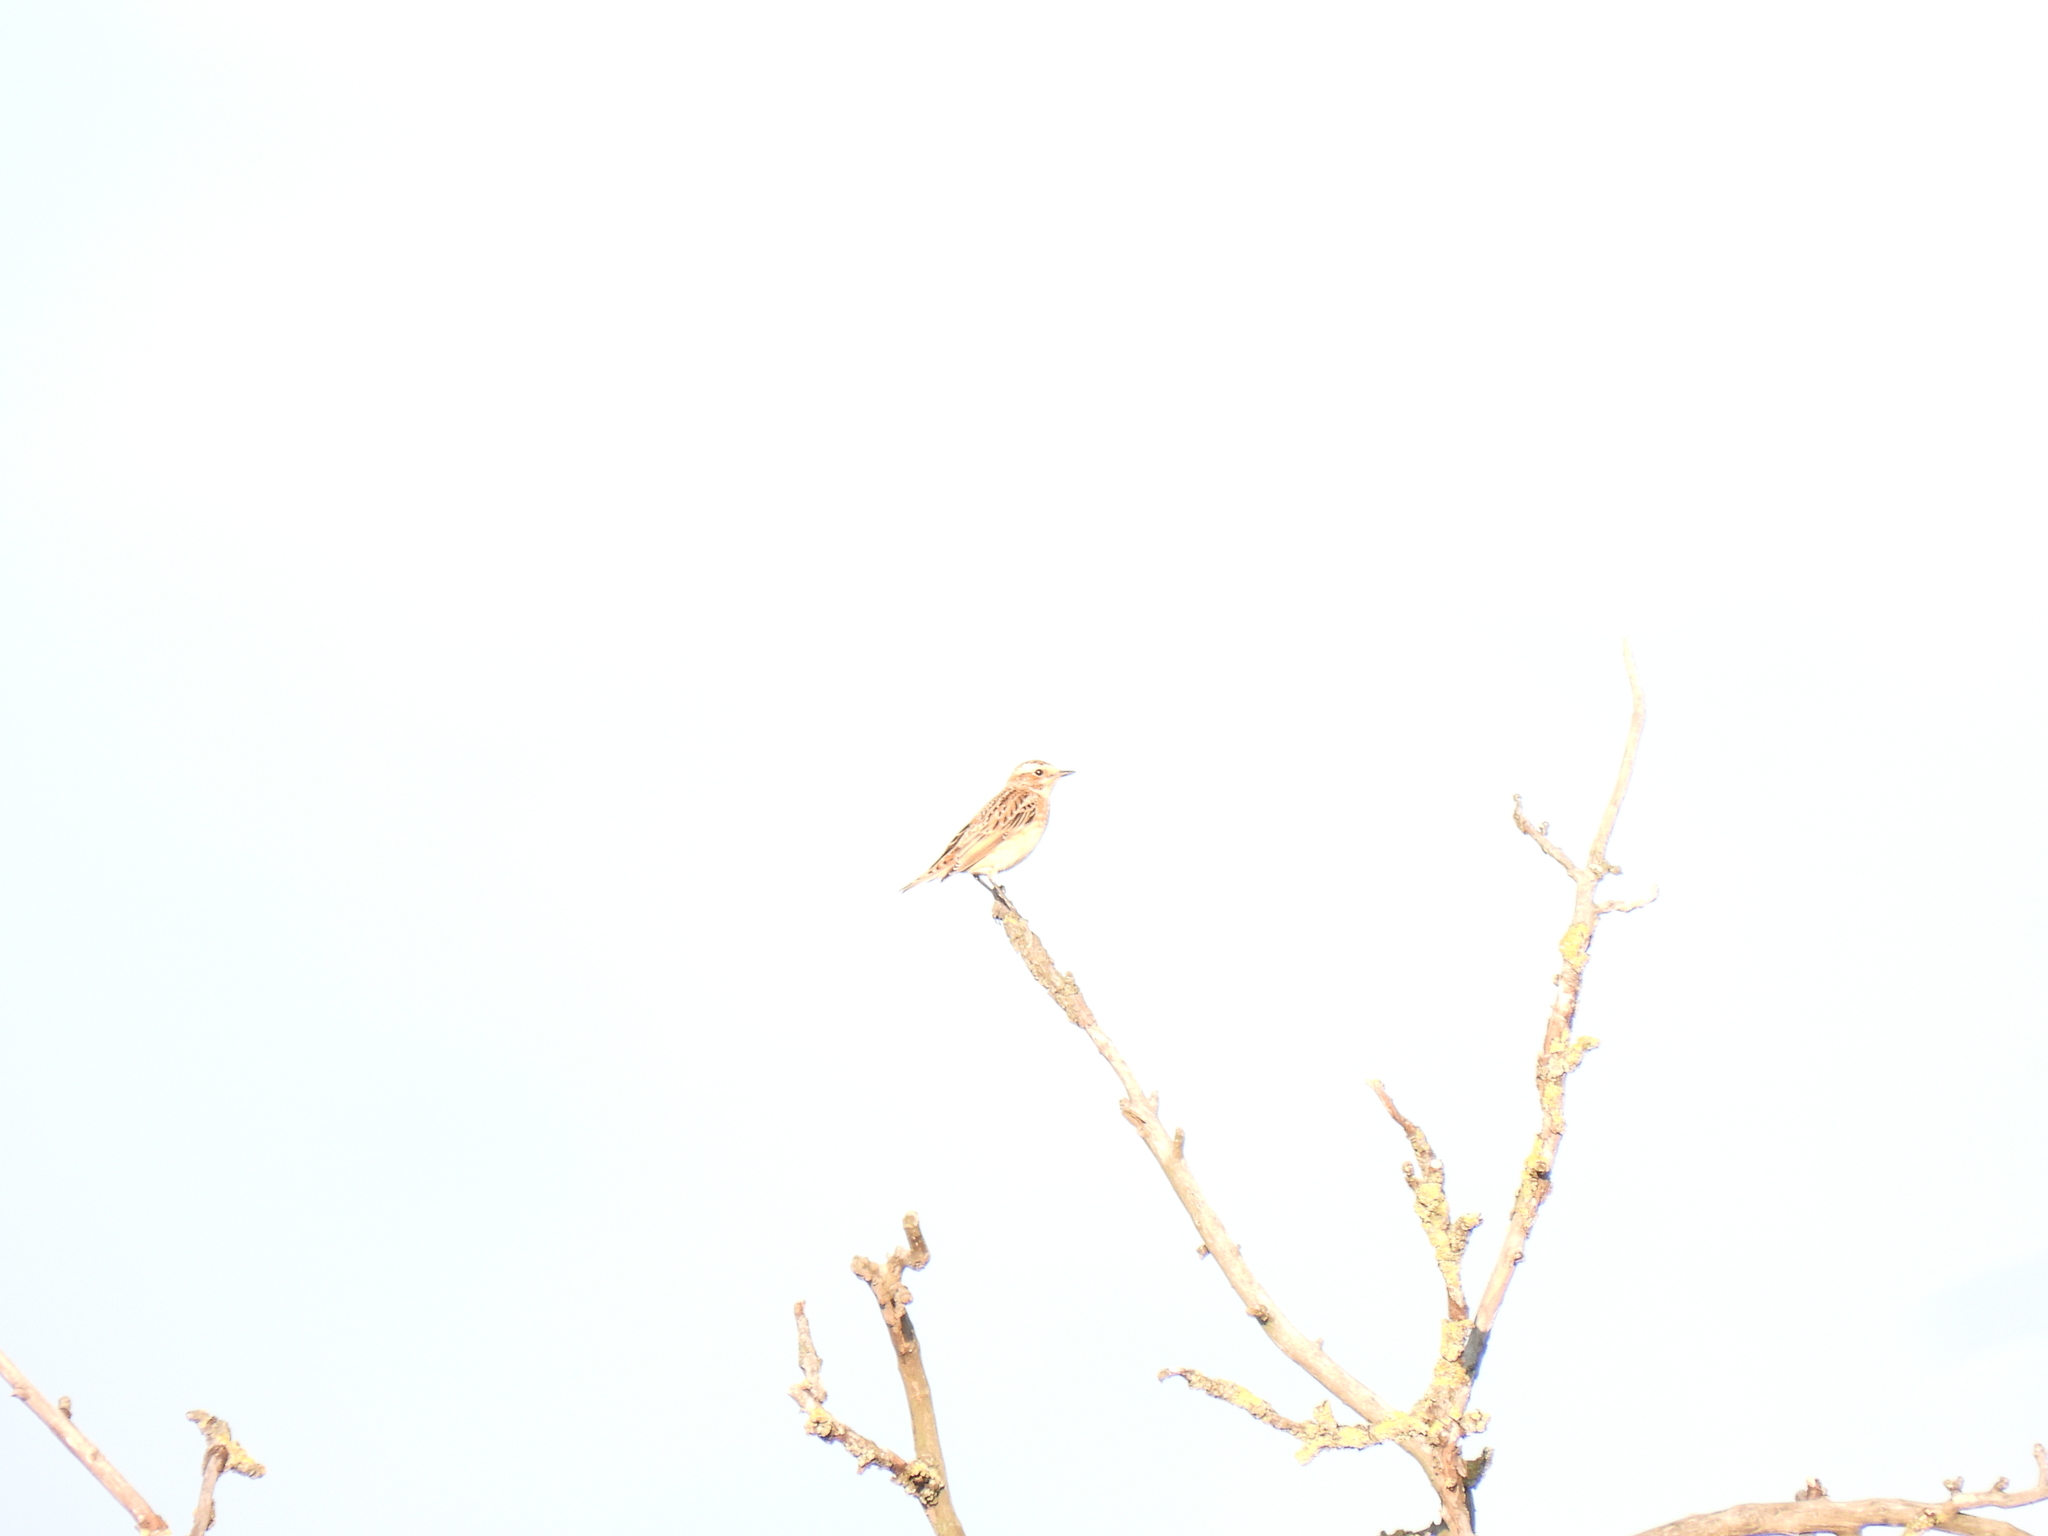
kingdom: Animalia
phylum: Chordata
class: Aves
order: Passeriformes
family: Muscicapidae
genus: Saxicola
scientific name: Saxicola rubetra
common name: Whinchat
